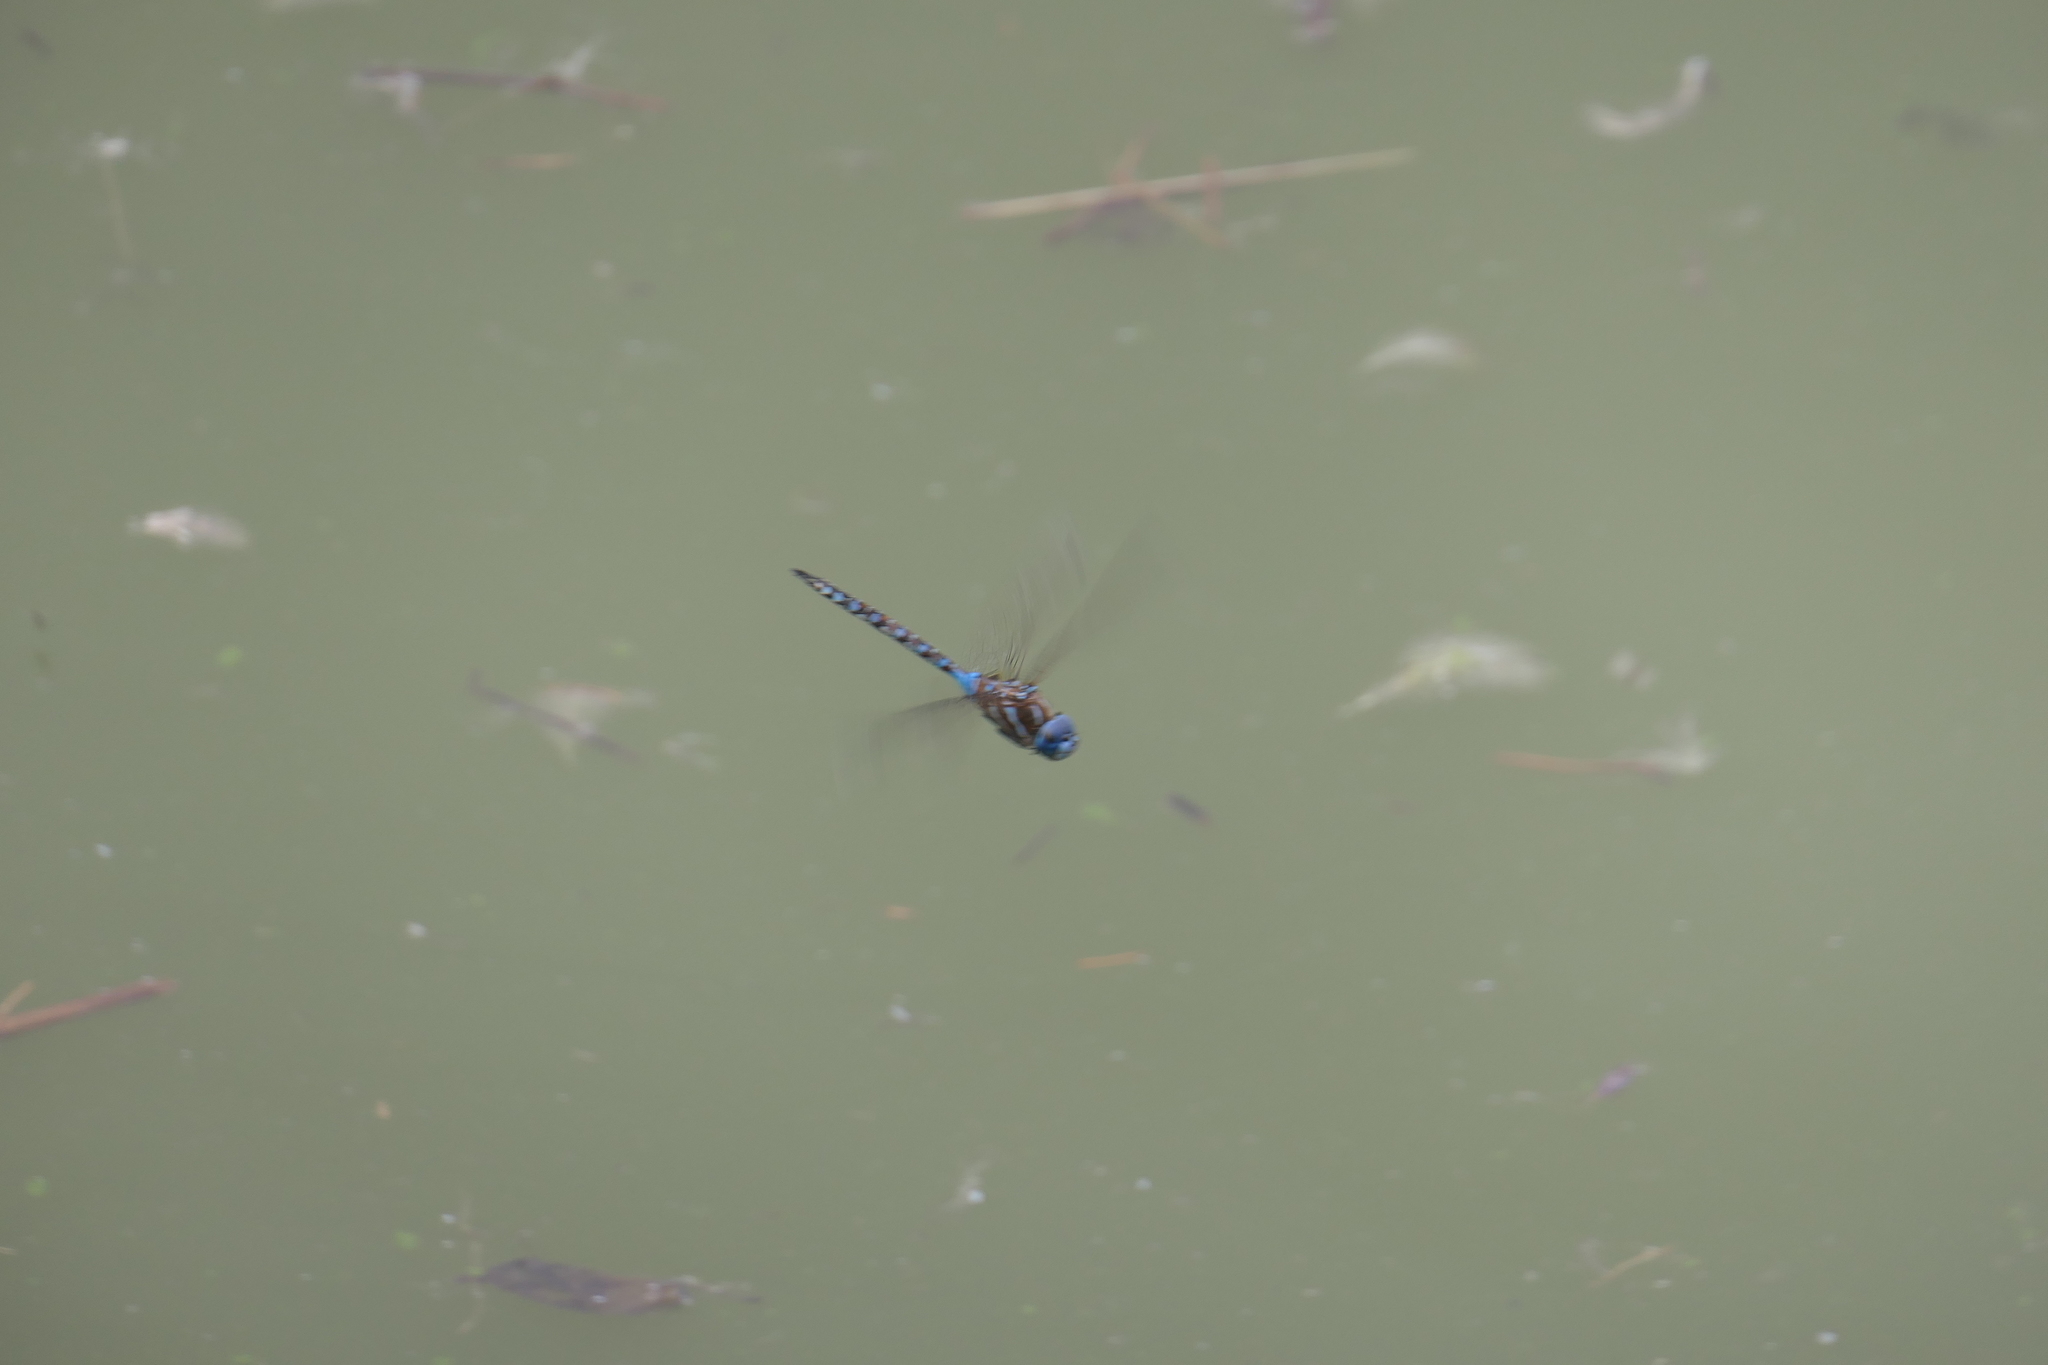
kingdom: Animalia
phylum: Arthropoda
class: Insecta
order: Odonata
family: Aeshnidae
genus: Rhionaeschna
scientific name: Rhionaeschna multicolor
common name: Blue-eyed darner
